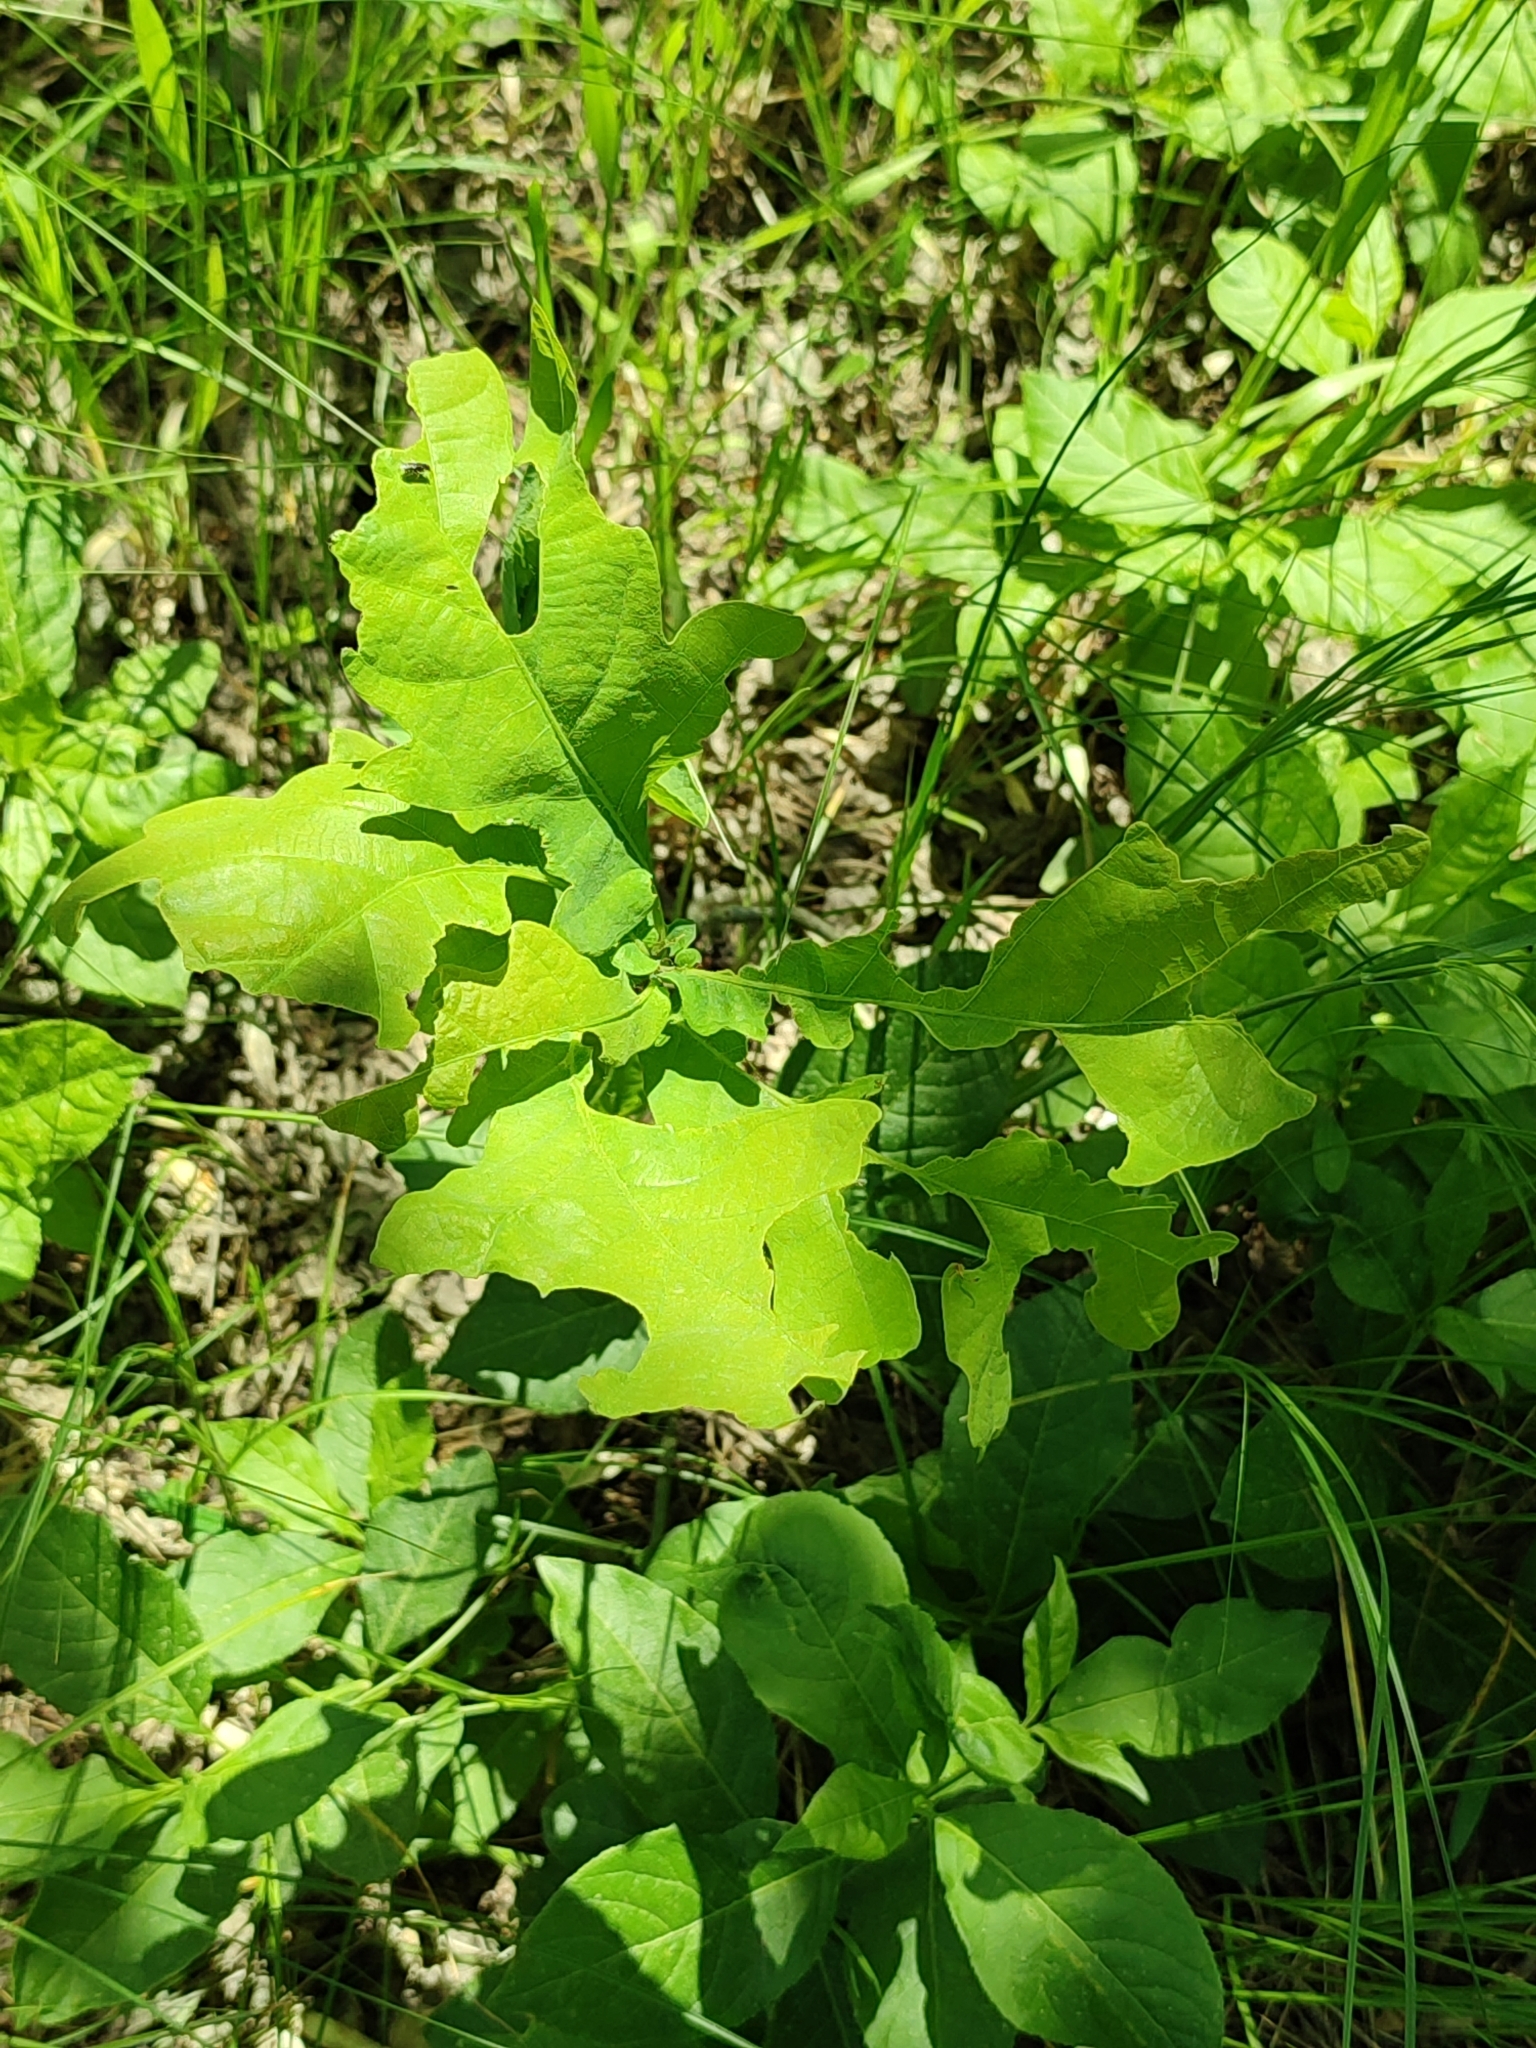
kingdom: Plantae
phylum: Tracheophyta
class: Magnoliopsida
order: Fagales
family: Fagaceae
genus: Quercus
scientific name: Quercus robur
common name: Pedunculate oak
